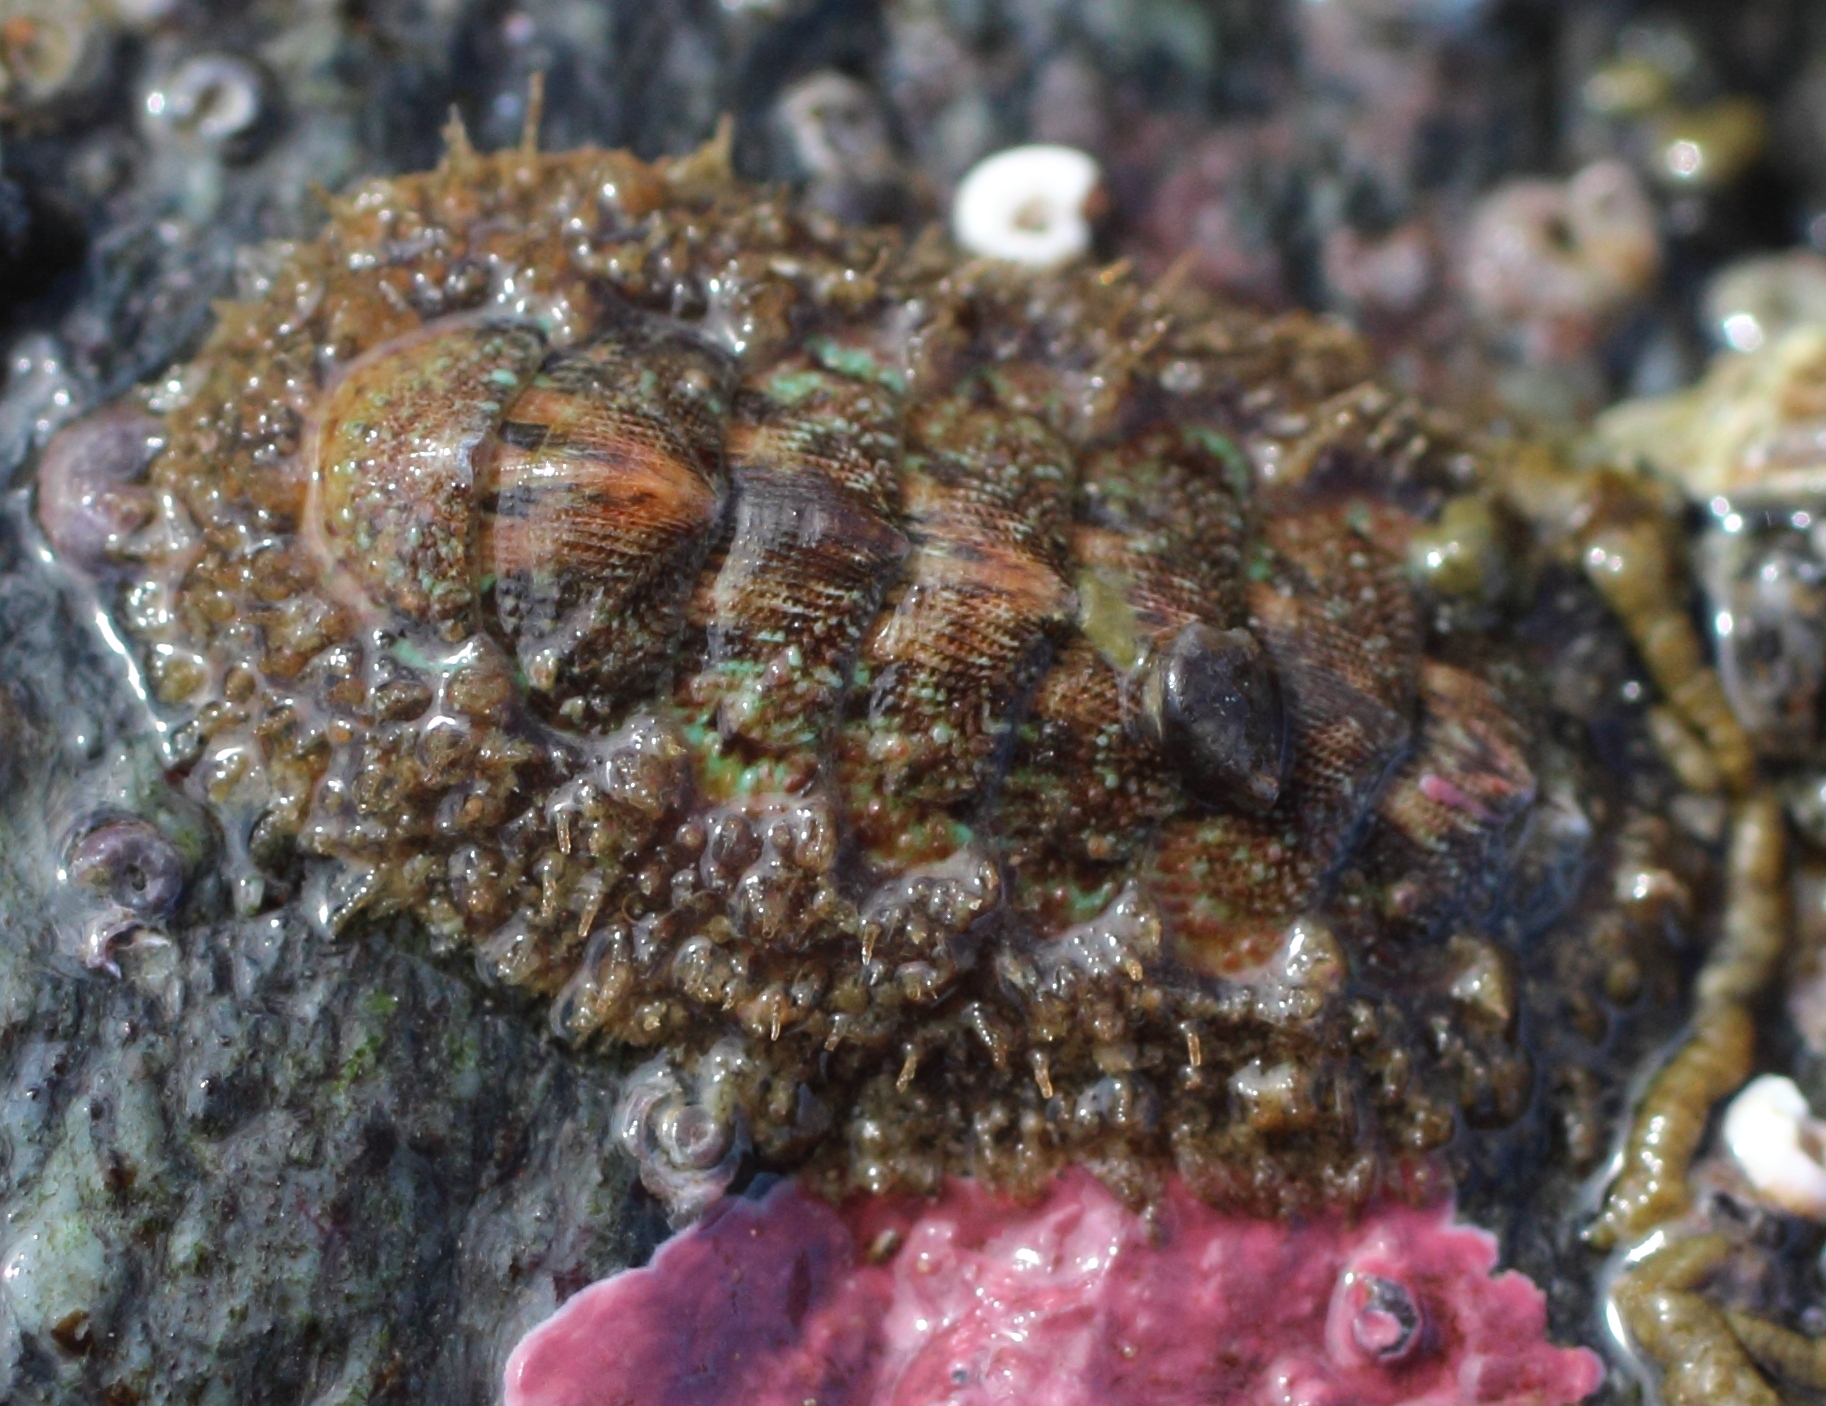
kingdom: Animalia
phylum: Mollusca
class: Polyplacophora
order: Chitonida
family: Mopaliidae
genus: Mopalia
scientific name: Mopalia ciliata
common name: Hairy chiton
